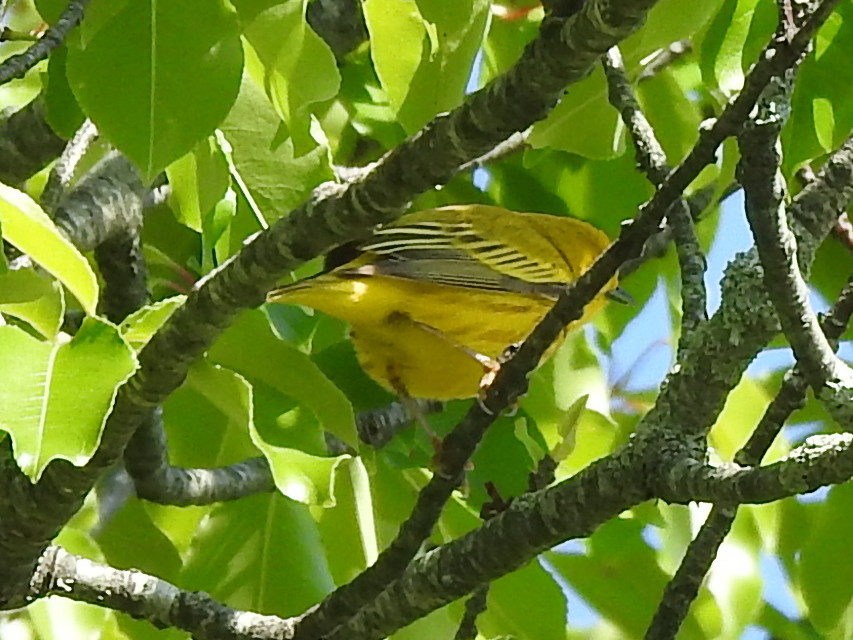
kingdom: Animalia
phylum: Chordata
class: Aves
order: Passeriformes
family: Parulidae
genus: Setophaga
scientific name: Setophaga petechia
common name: Yellow warbler
